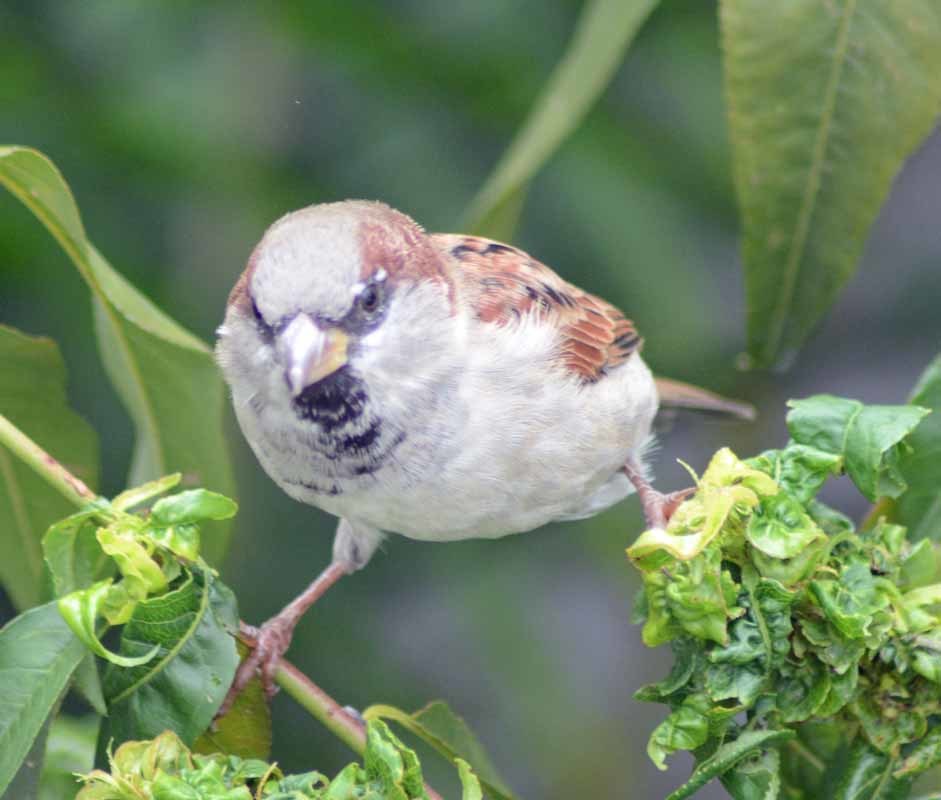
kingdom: Animalia
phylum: Chordata
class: Aves
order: Passeriformes
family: Passeridae
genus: Passer
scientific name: Passer domesticus
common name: House sparrow
